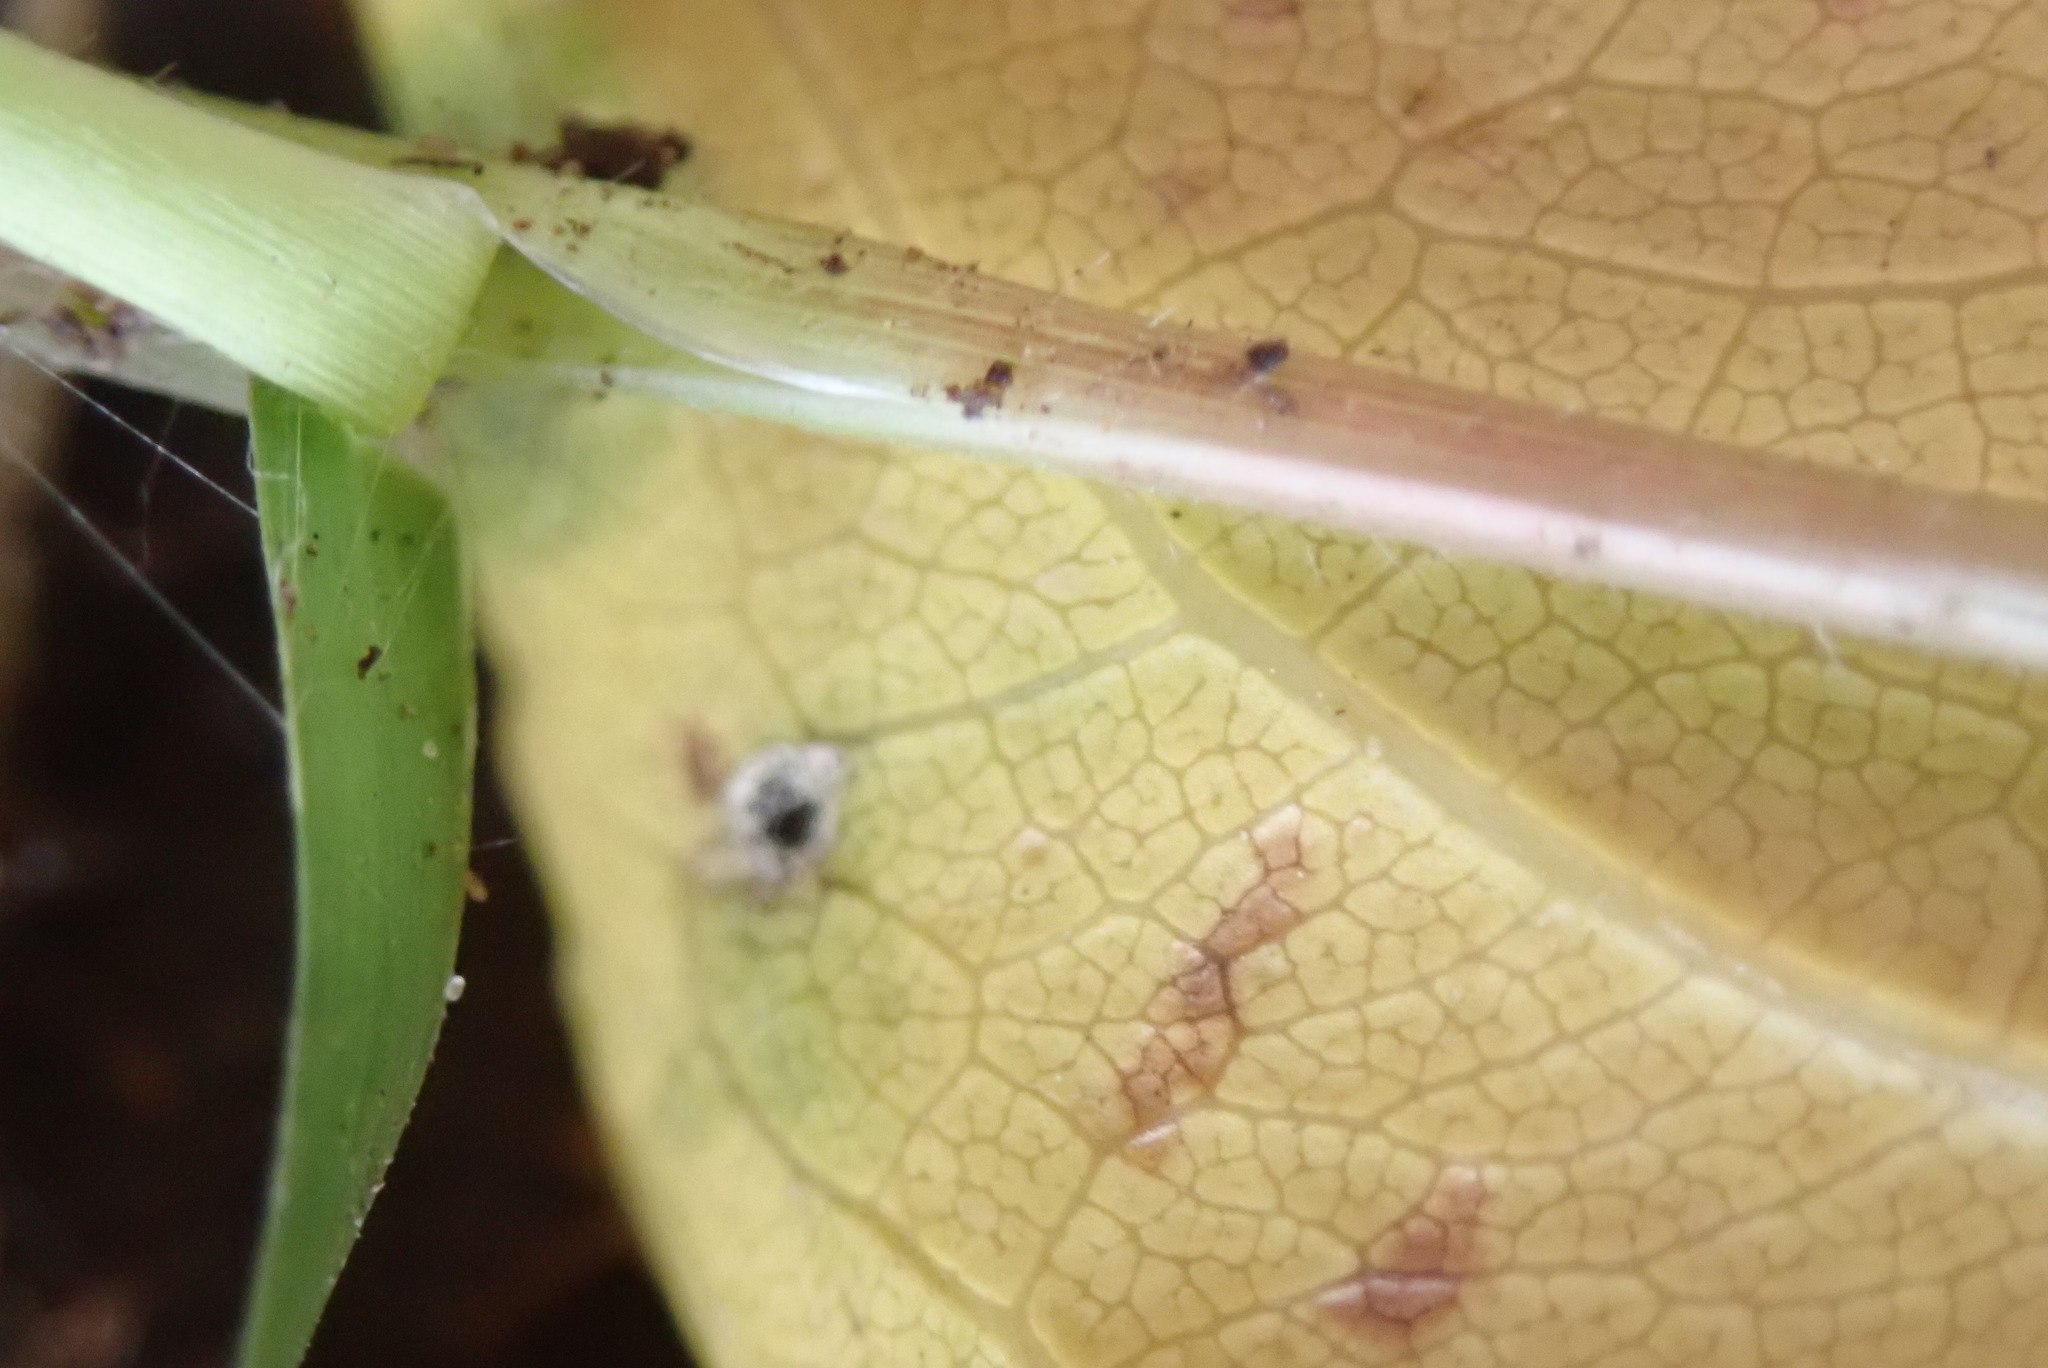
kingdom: Plantae
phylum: Tracheophyta
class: Liliopsida
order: Poales
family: Poaceae
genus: Cynodon
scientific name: Cynodon dactylon
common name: Bermuda grass
